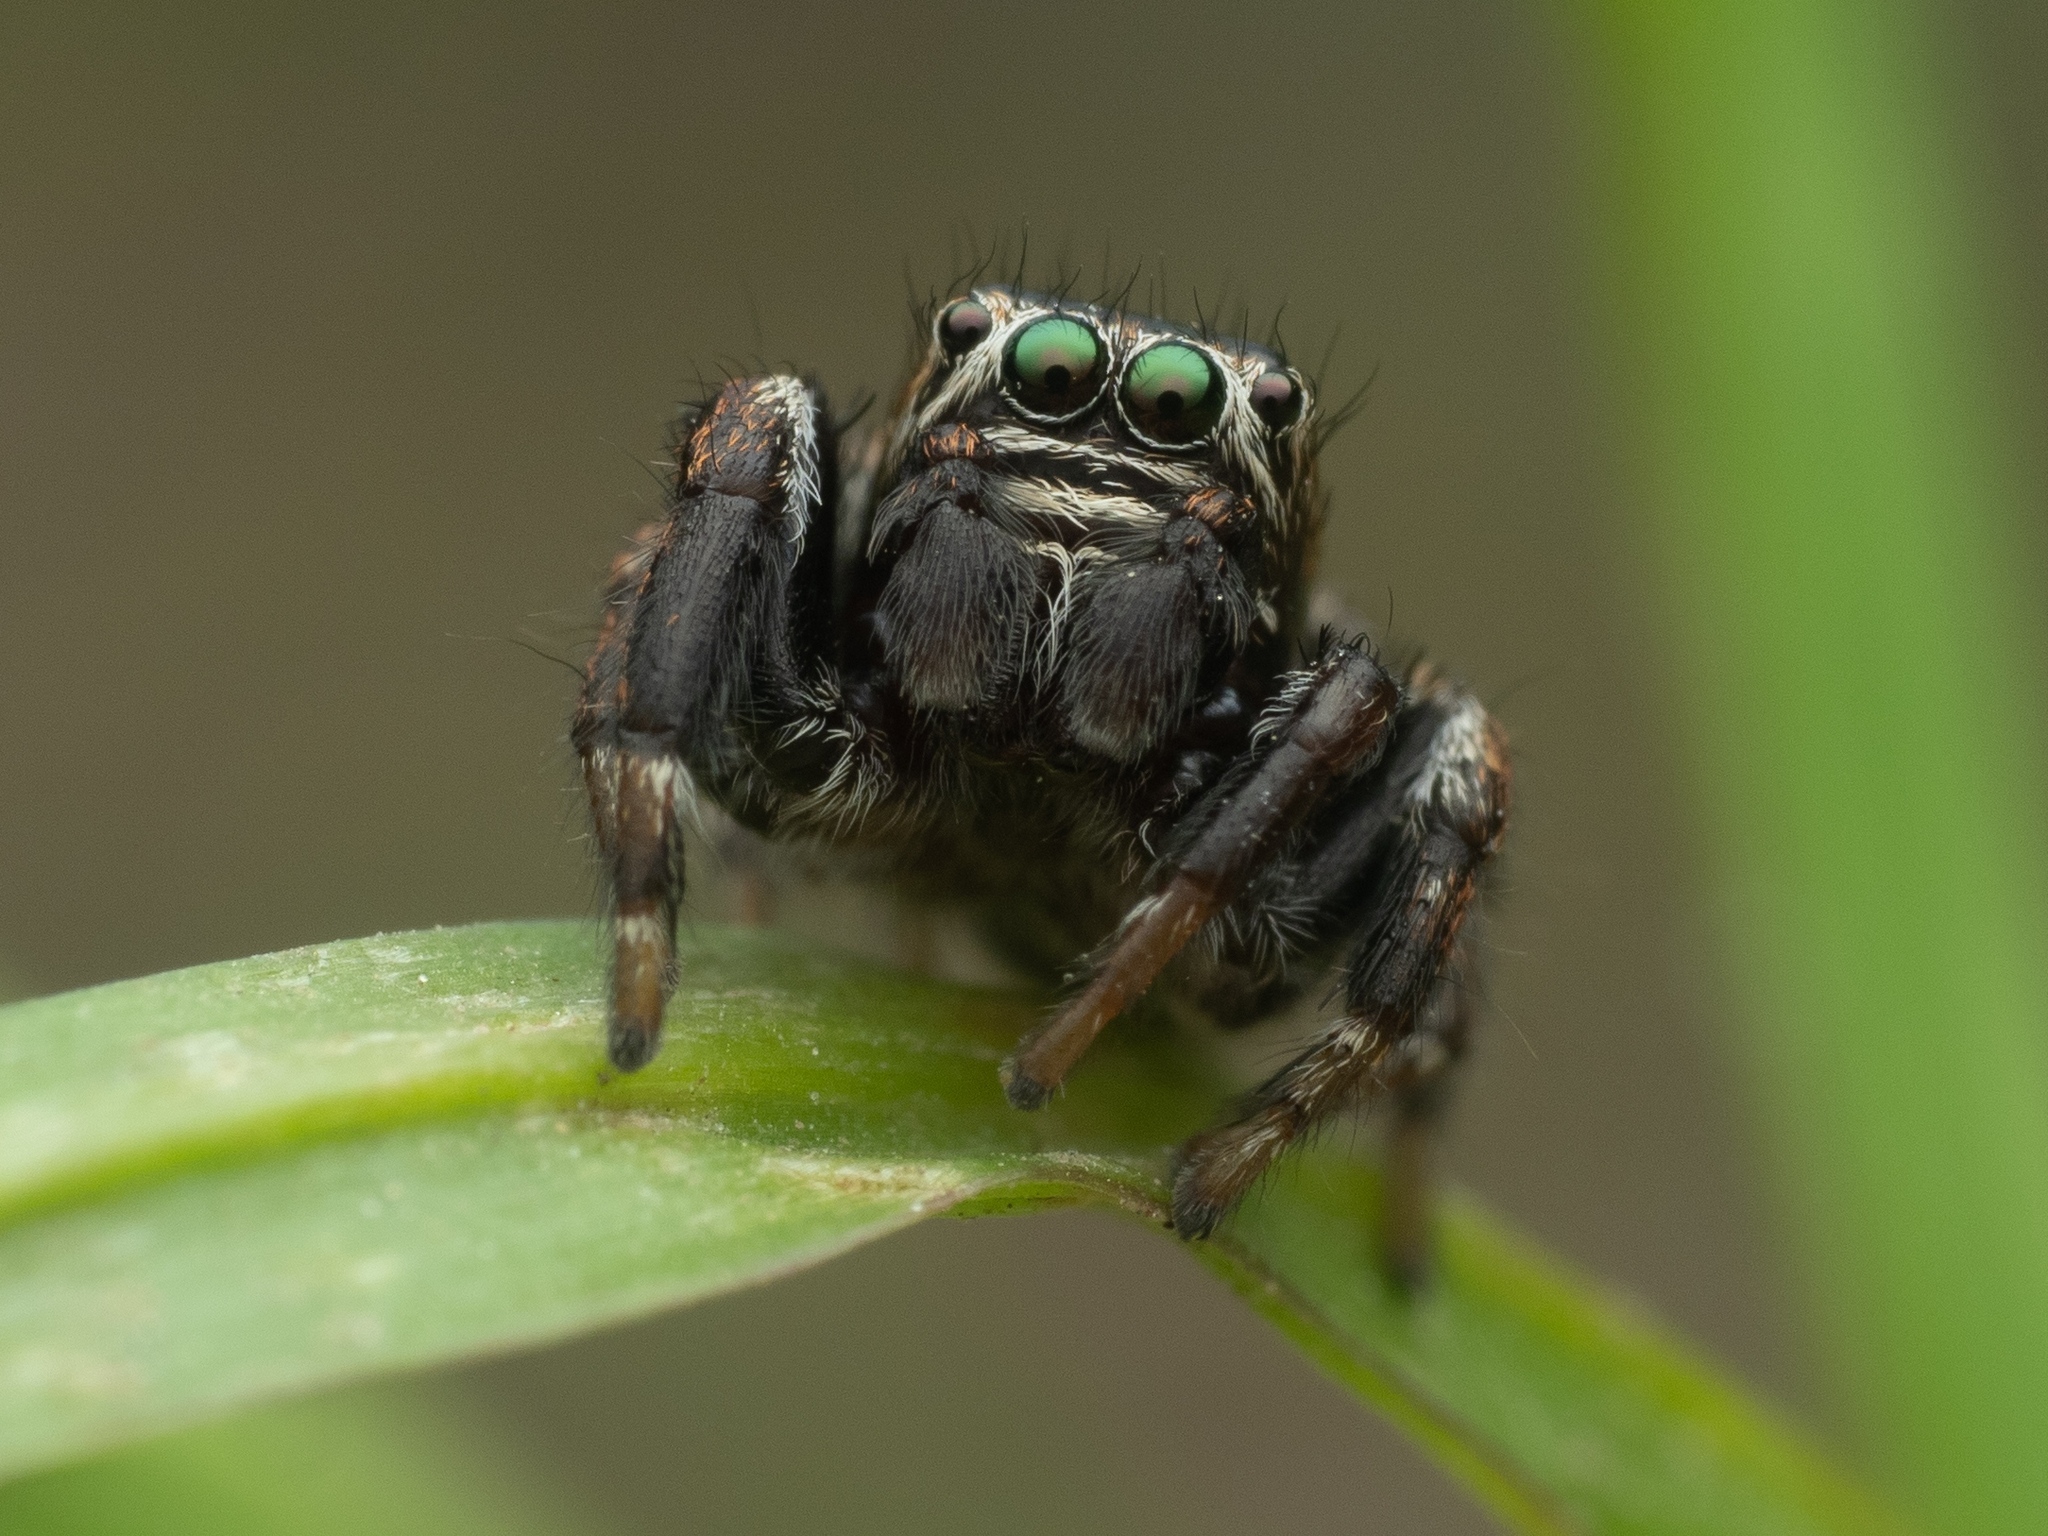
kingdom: Animalia
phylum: Arthropoda
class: Arachnida
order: Araneae
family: Salticidae
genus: Evarcha
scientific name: Evarcha arcuata
